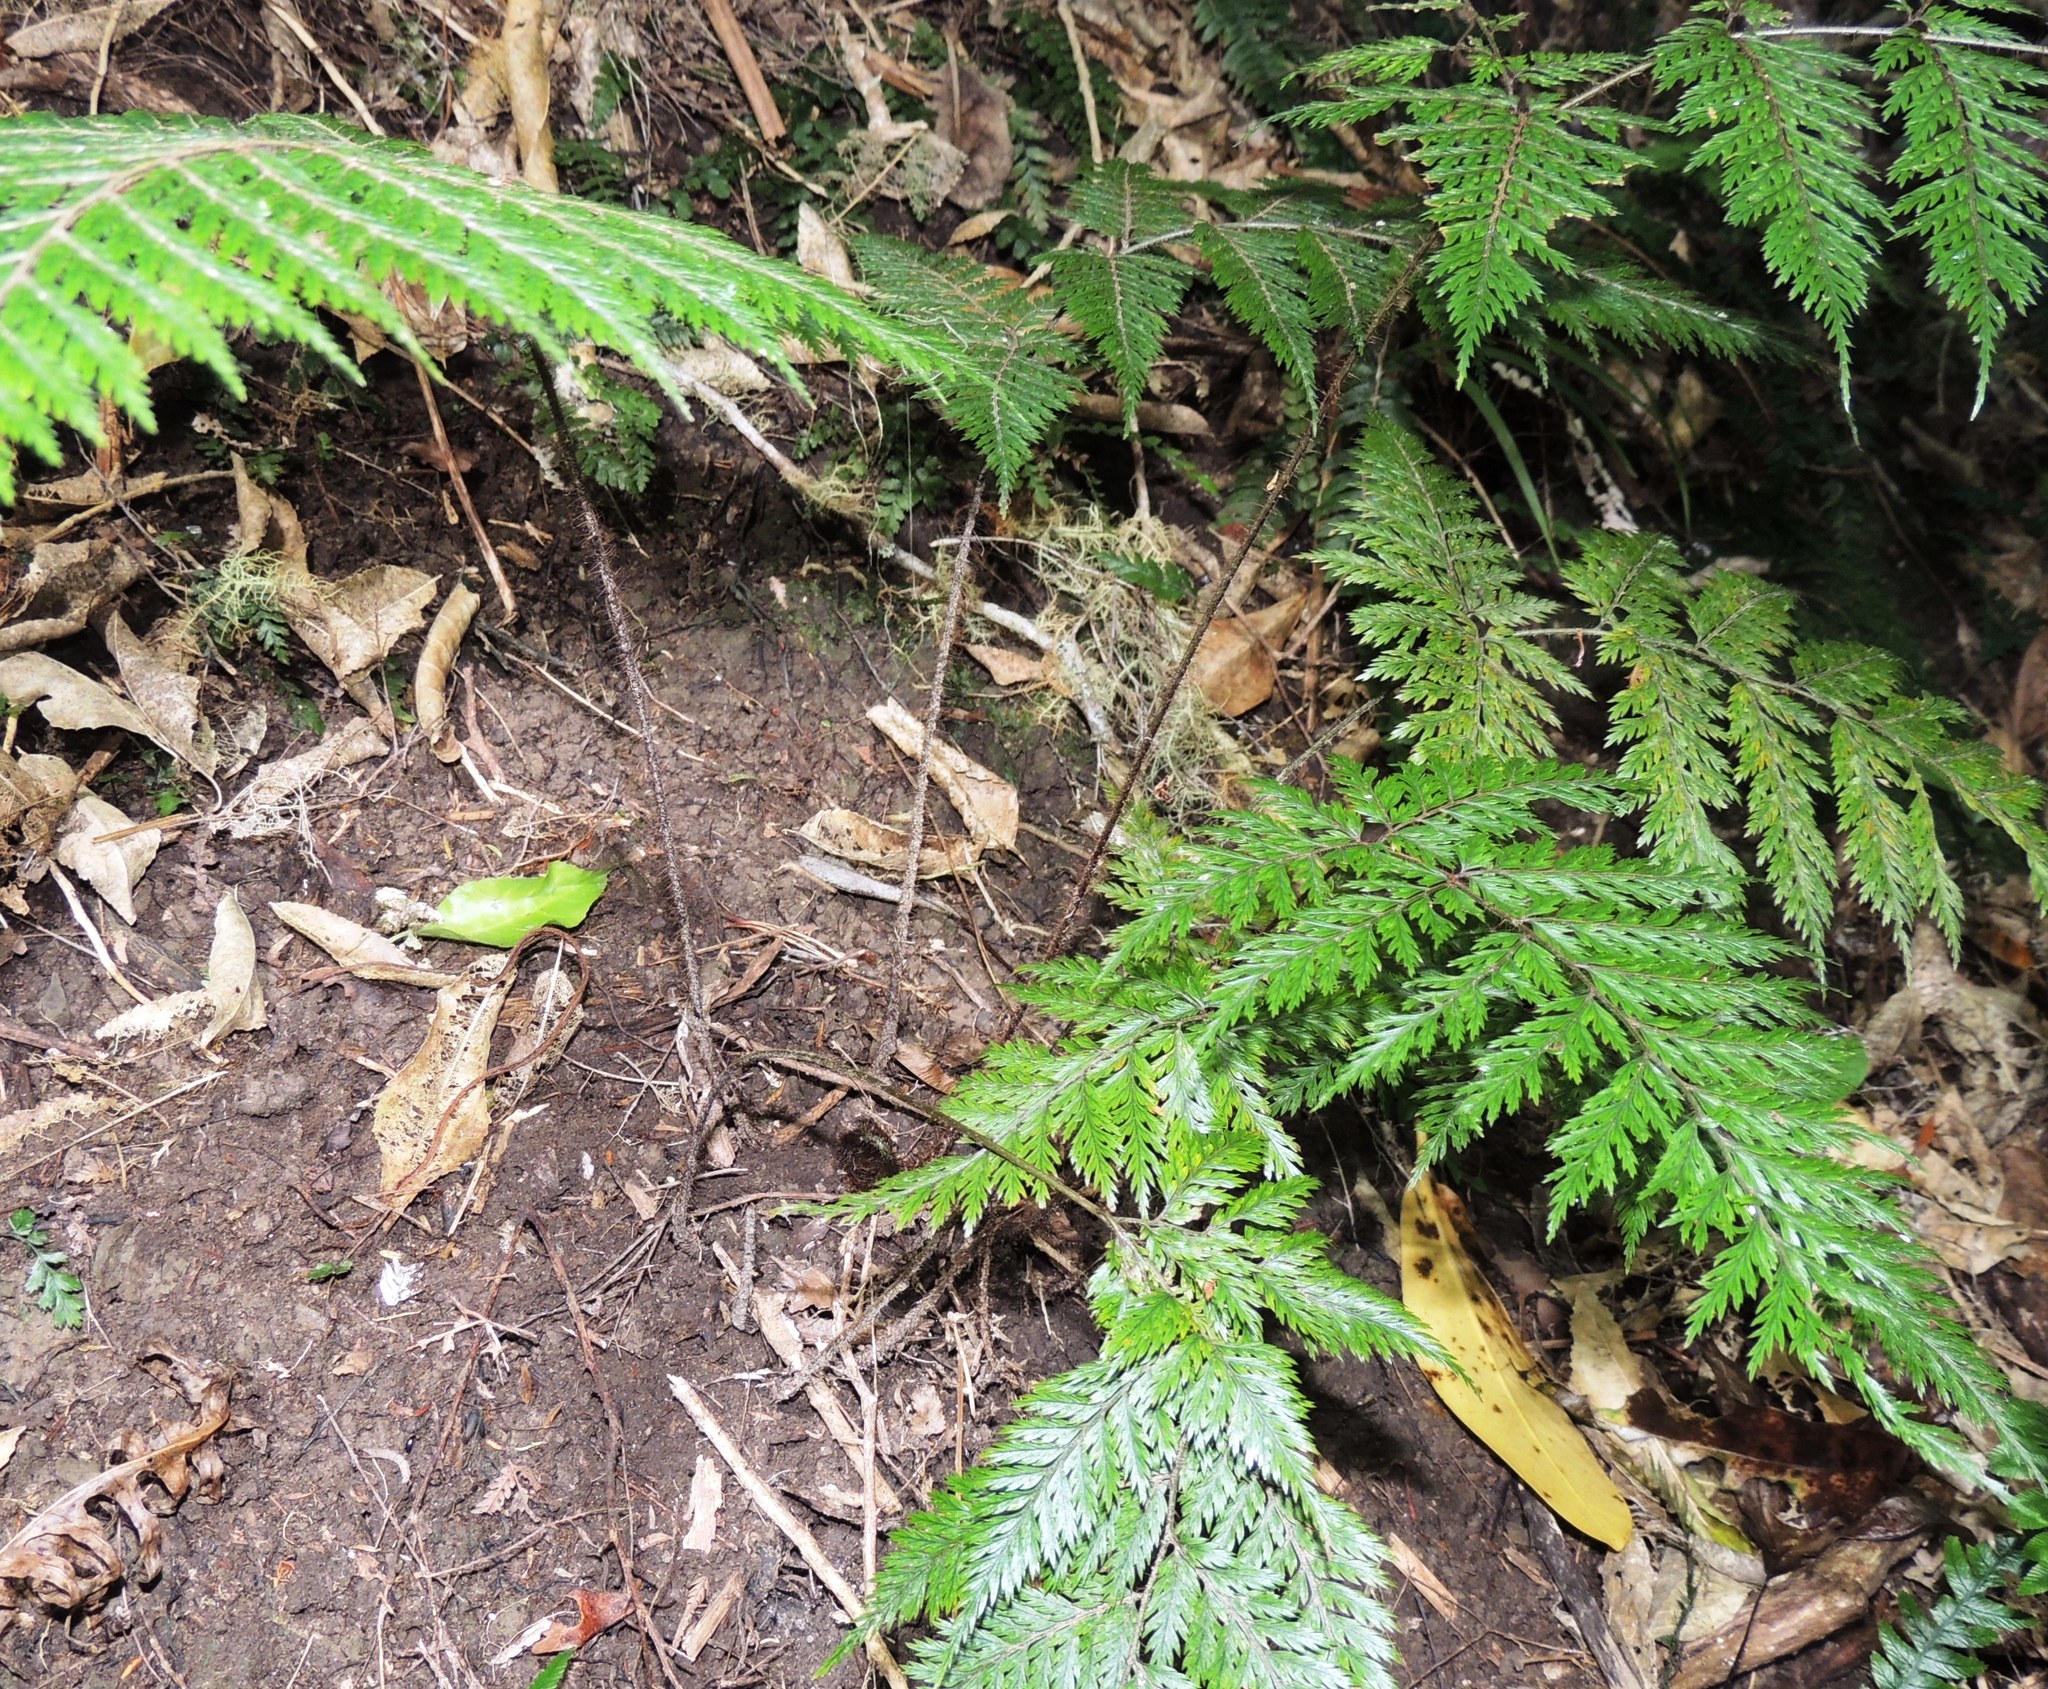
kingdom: Plantae
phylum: Tracheophyta
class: Polypodiopsida
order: Polypodiales
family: Dryopteridaceae
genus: Lastreopsis
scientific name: Lastreopsis hispida
